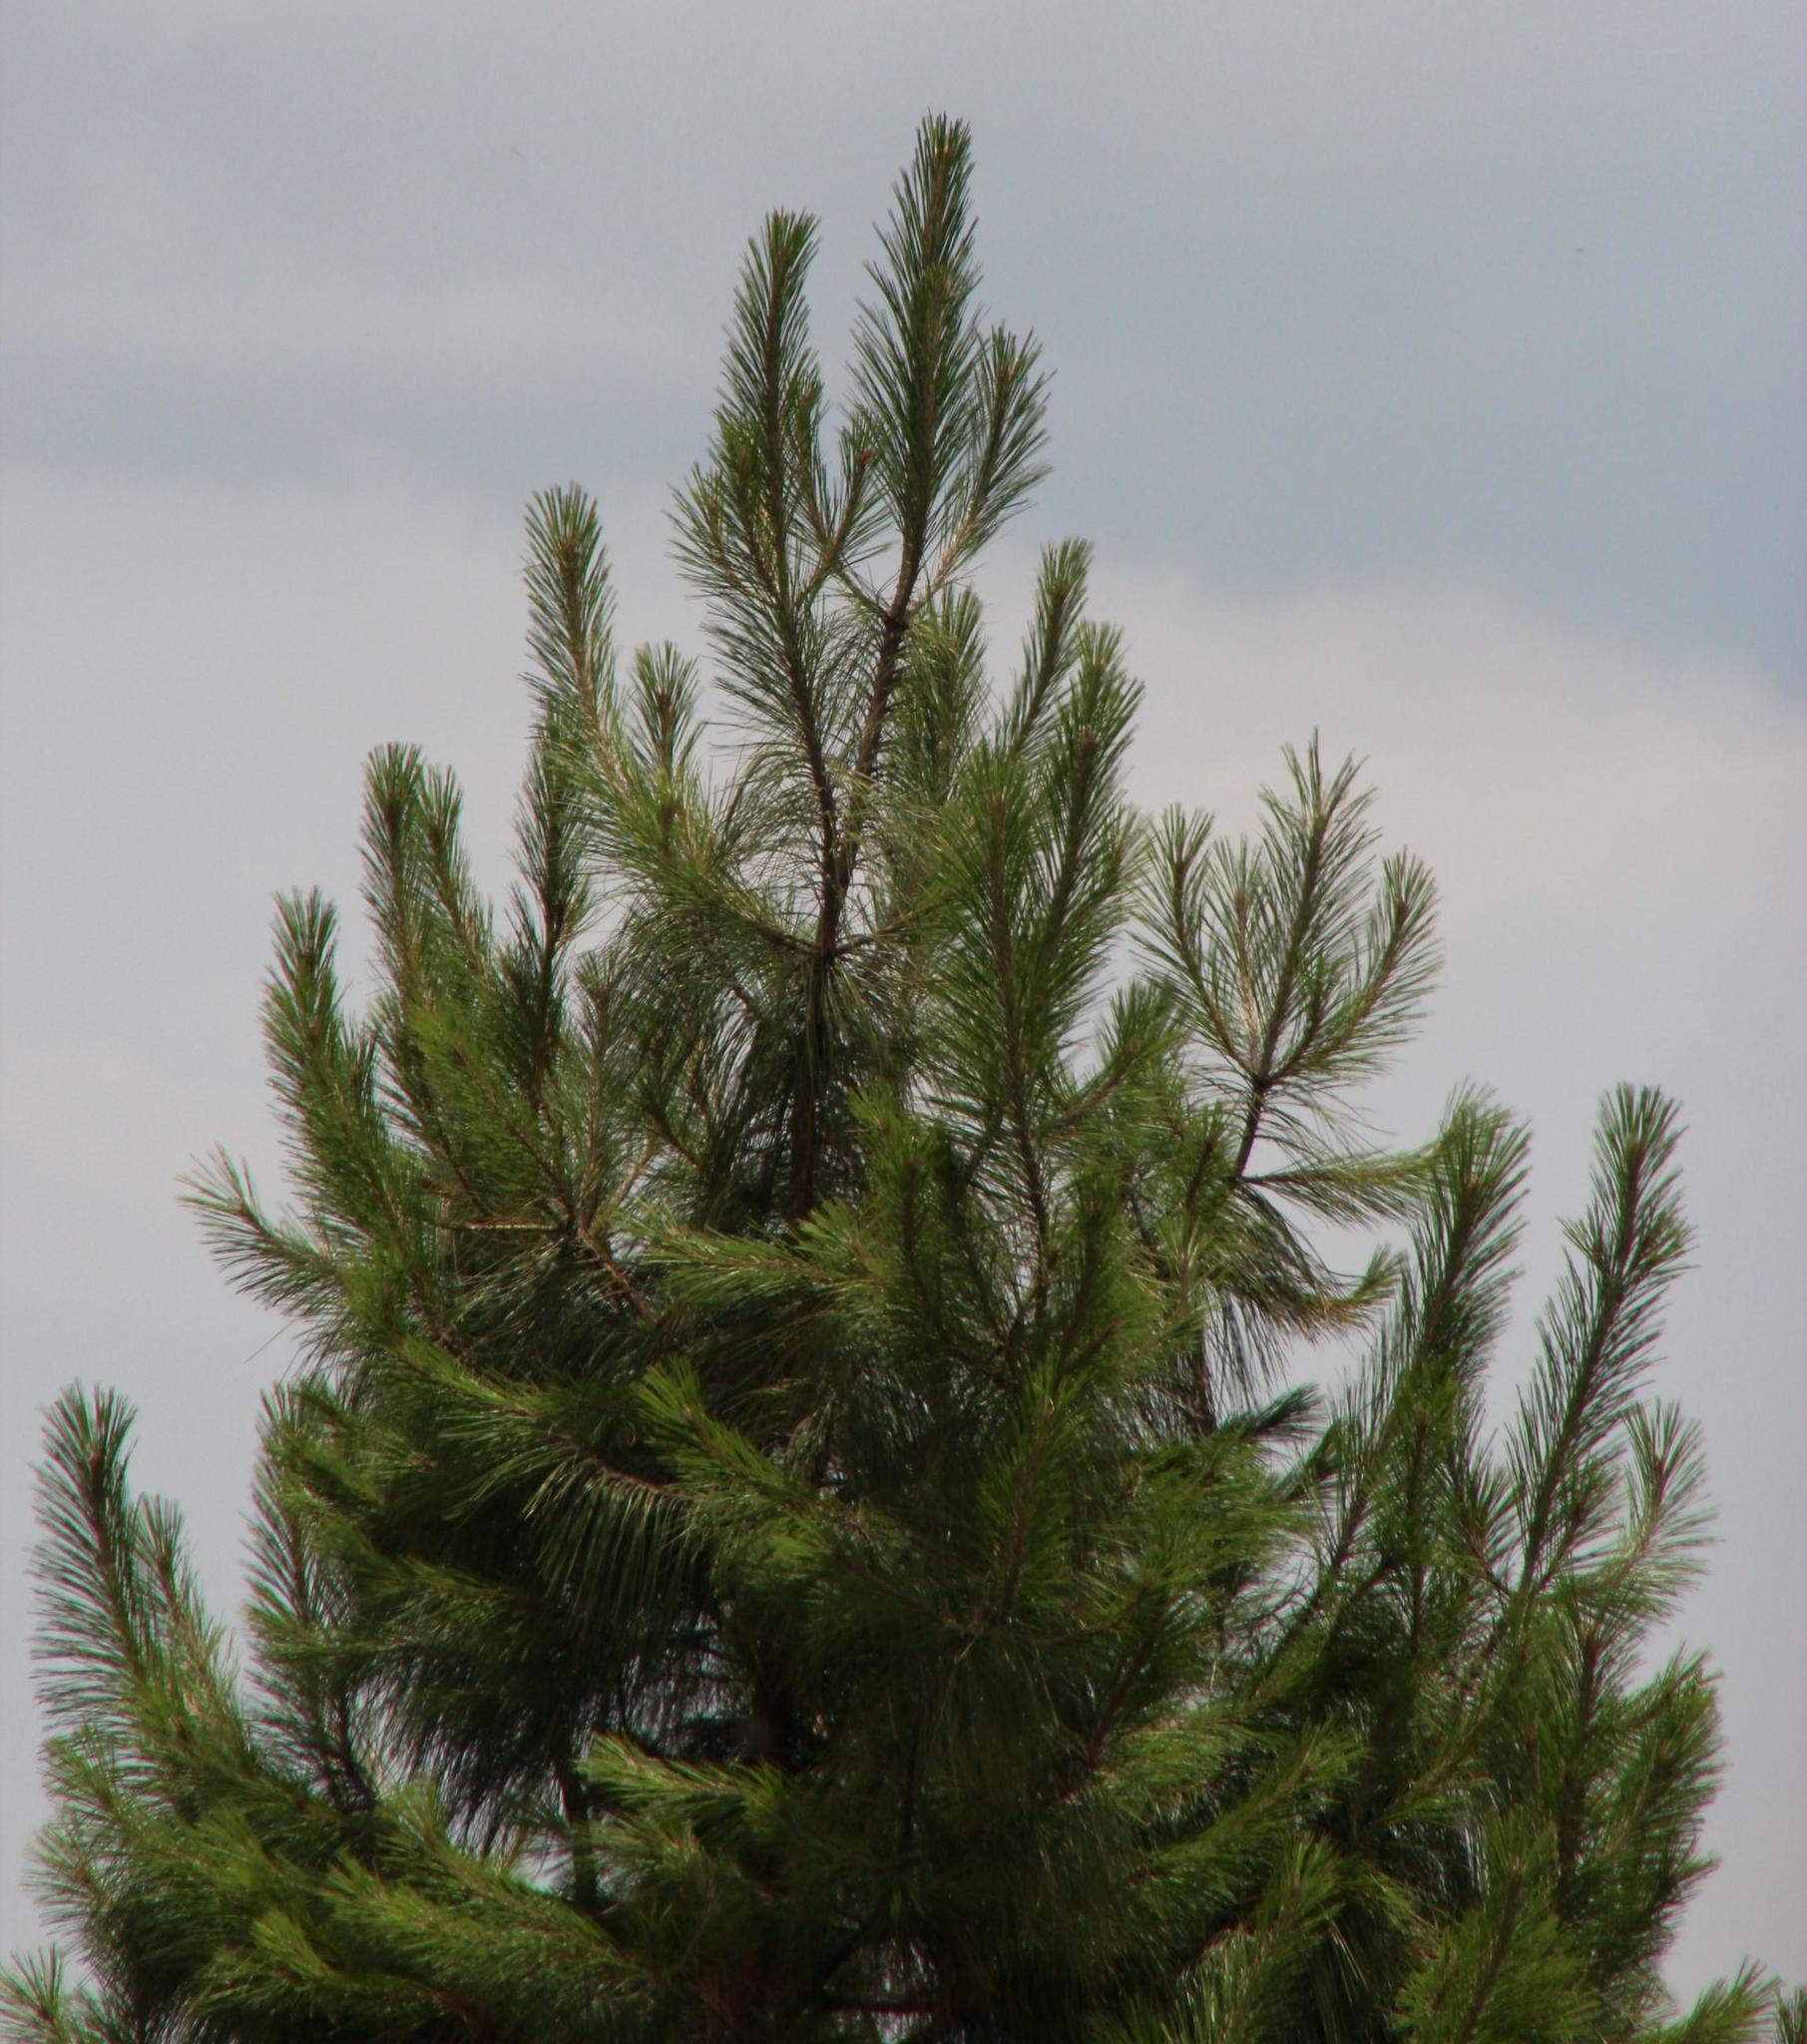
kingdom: Plantae
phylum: Tracheophyta
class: Pinopsida
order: Pinales
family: Pinaceae
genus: Pinus
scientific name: Pinus patula
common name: Mexican weeping pine
